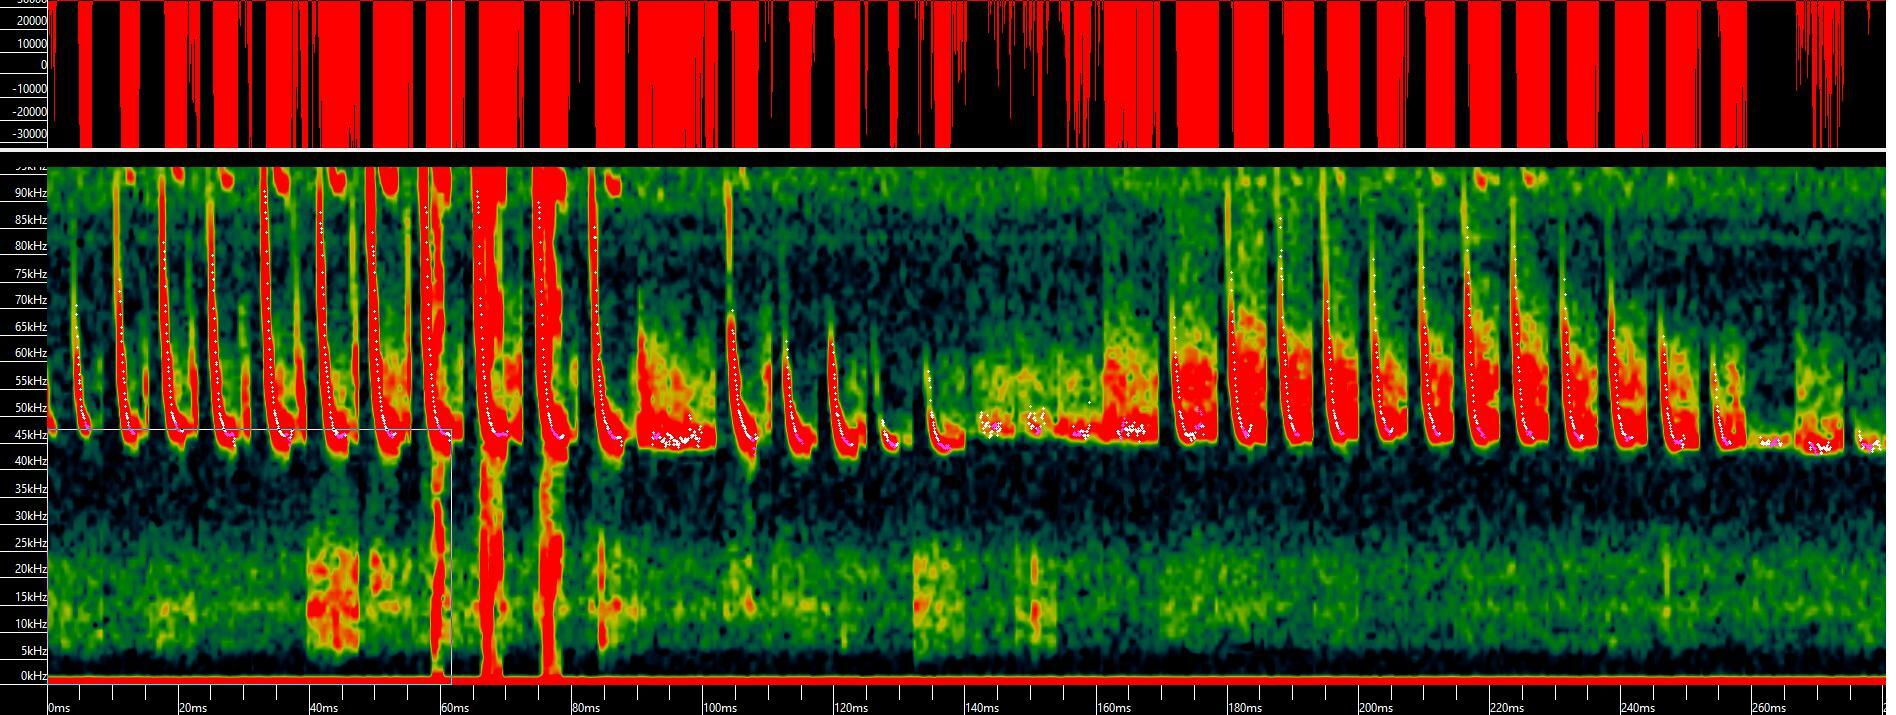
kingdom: Animalia
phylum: Chordata
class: Mammalia
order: Chiroptera
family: Vespertilionidae
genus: Pipistrellus
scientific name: Pipistrellus pipistrellus
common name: Common pipistrelle
